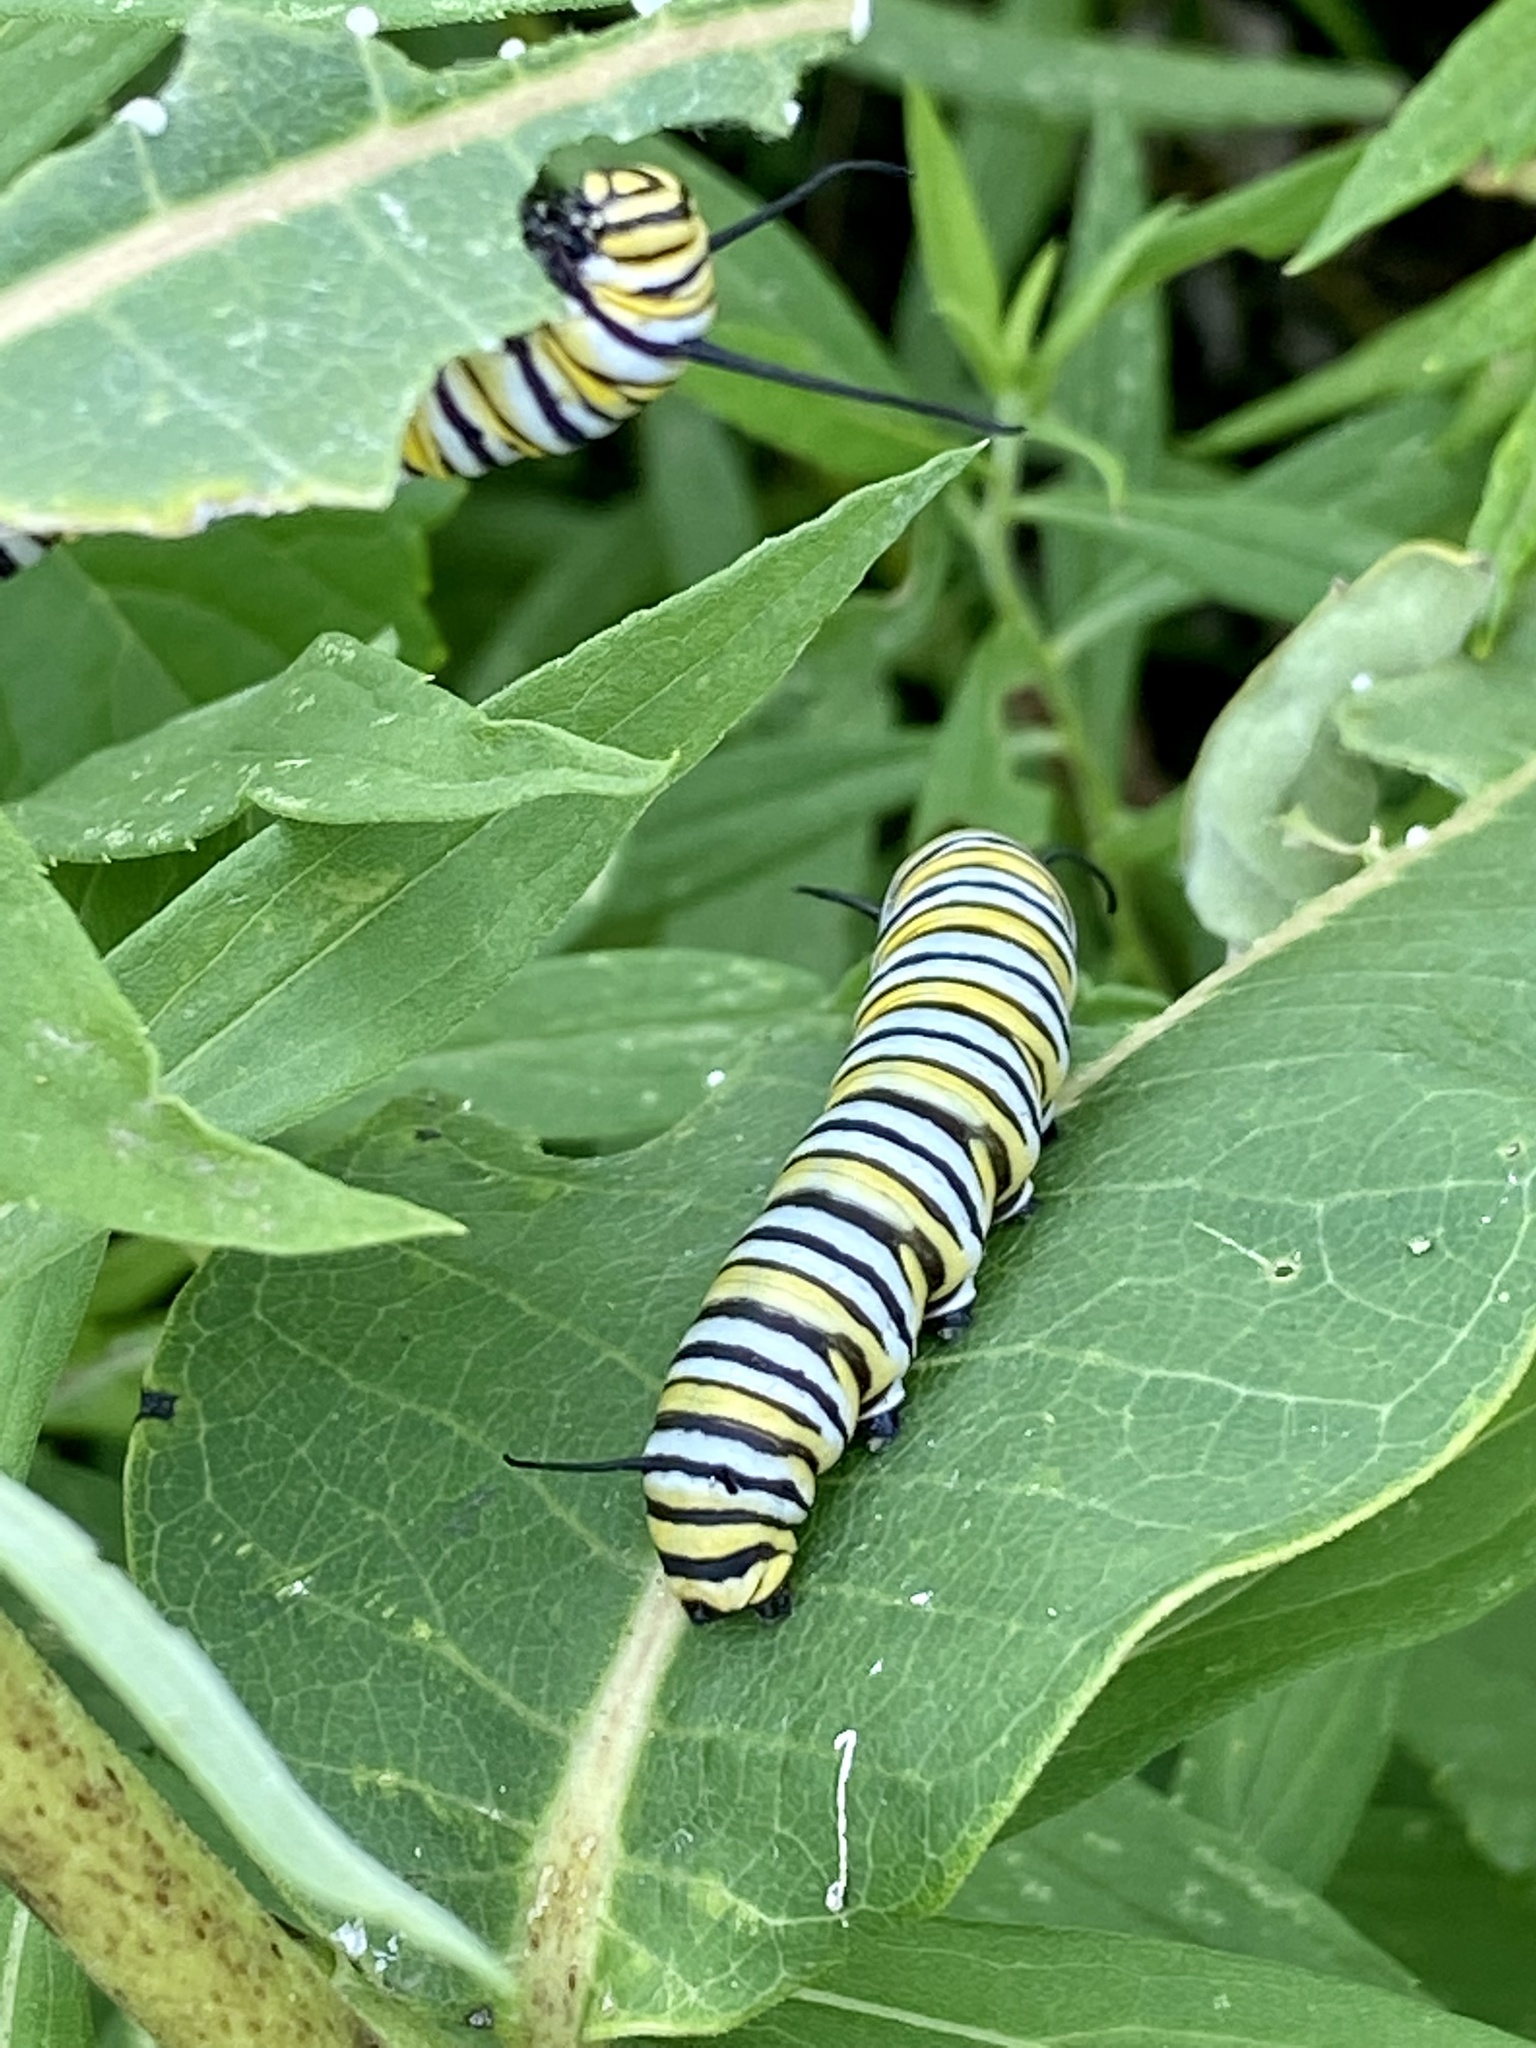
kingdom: Animalia
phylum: Arthropoda
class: Insecta
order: Lepidoptera
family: Nymphalidae
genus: Danaus
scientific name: Danaus plexippus
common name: Monarch
